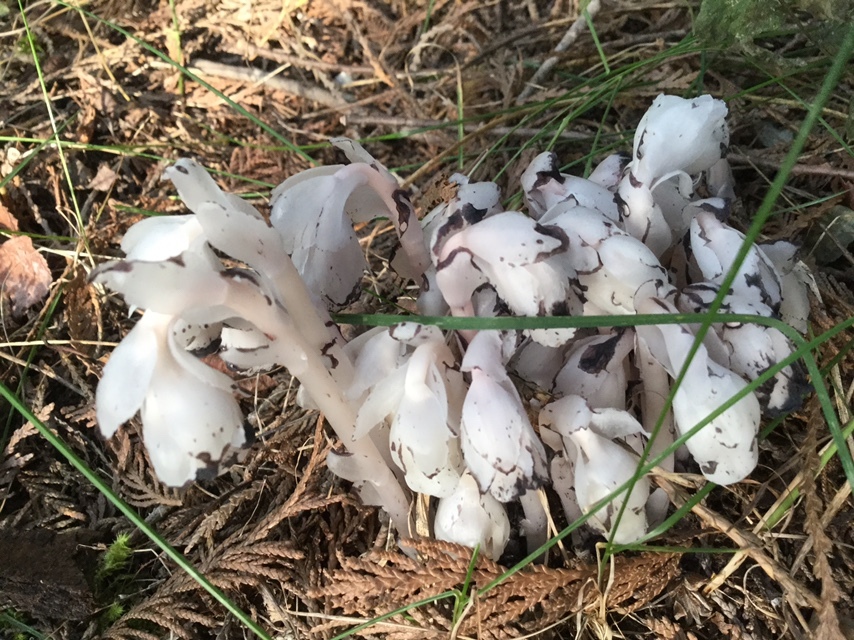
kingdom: Plantae
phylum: Tracheophyta
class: Magnoliopsida
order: Ericales
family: Ericaceae
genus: Monotropa
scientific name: Monotropa uniflora
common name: Convulsion root
